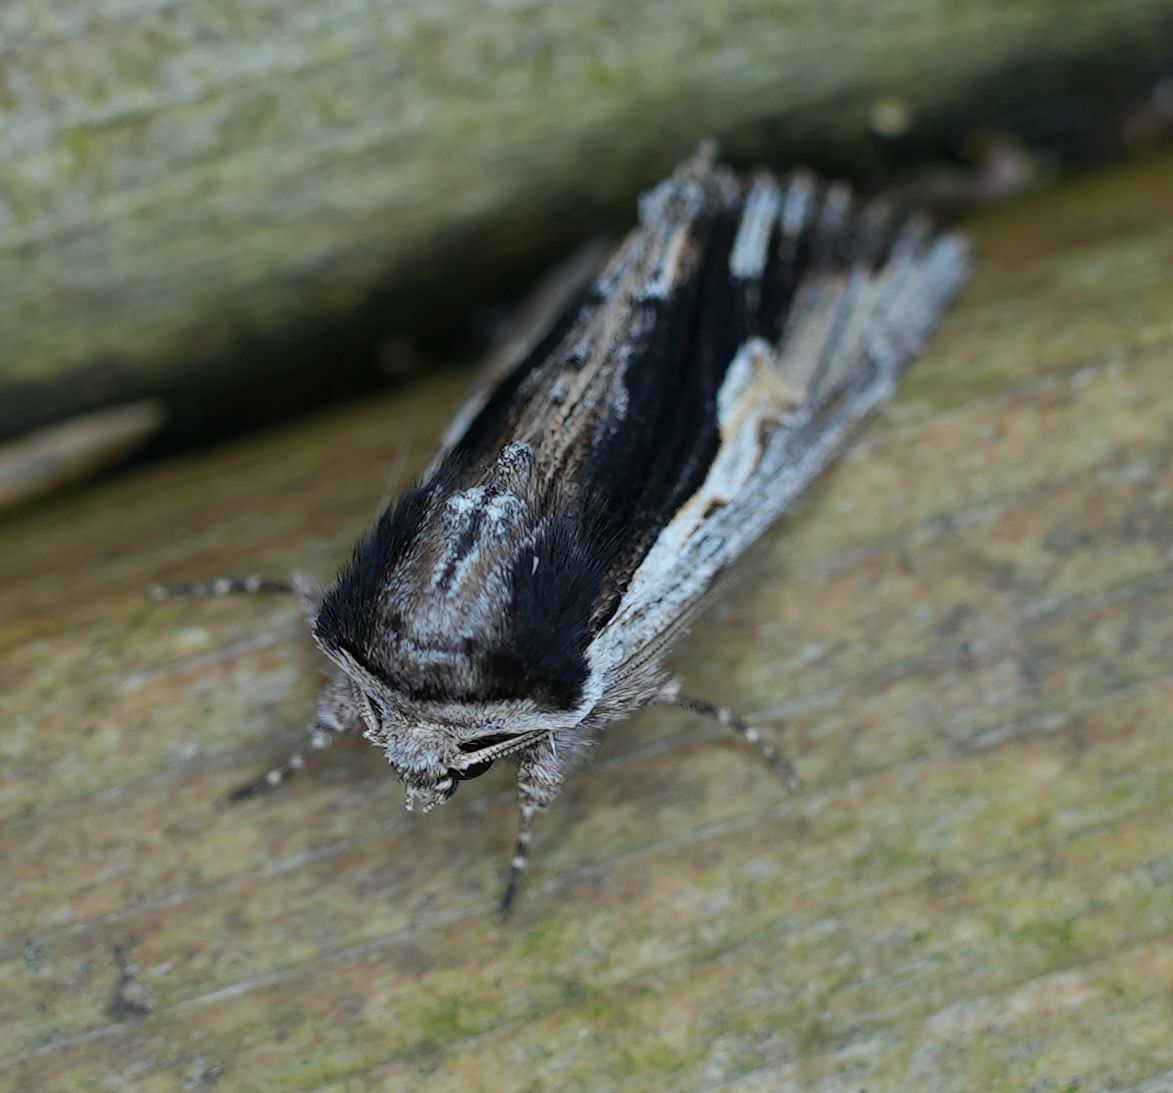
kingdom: Animalia
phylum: Arthropoda
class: Insecta
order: Lepidoptera
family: Noctuidae
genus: Achatia
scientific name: Achatia evicta
